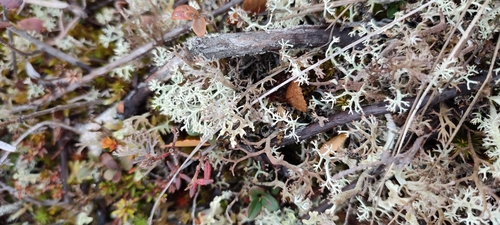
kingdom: Fungi
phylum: Ascomycota
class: Lecanoromycetes
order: Lecanorales
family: Cladoniaceae
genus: Cladonia
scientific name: Cladonia
